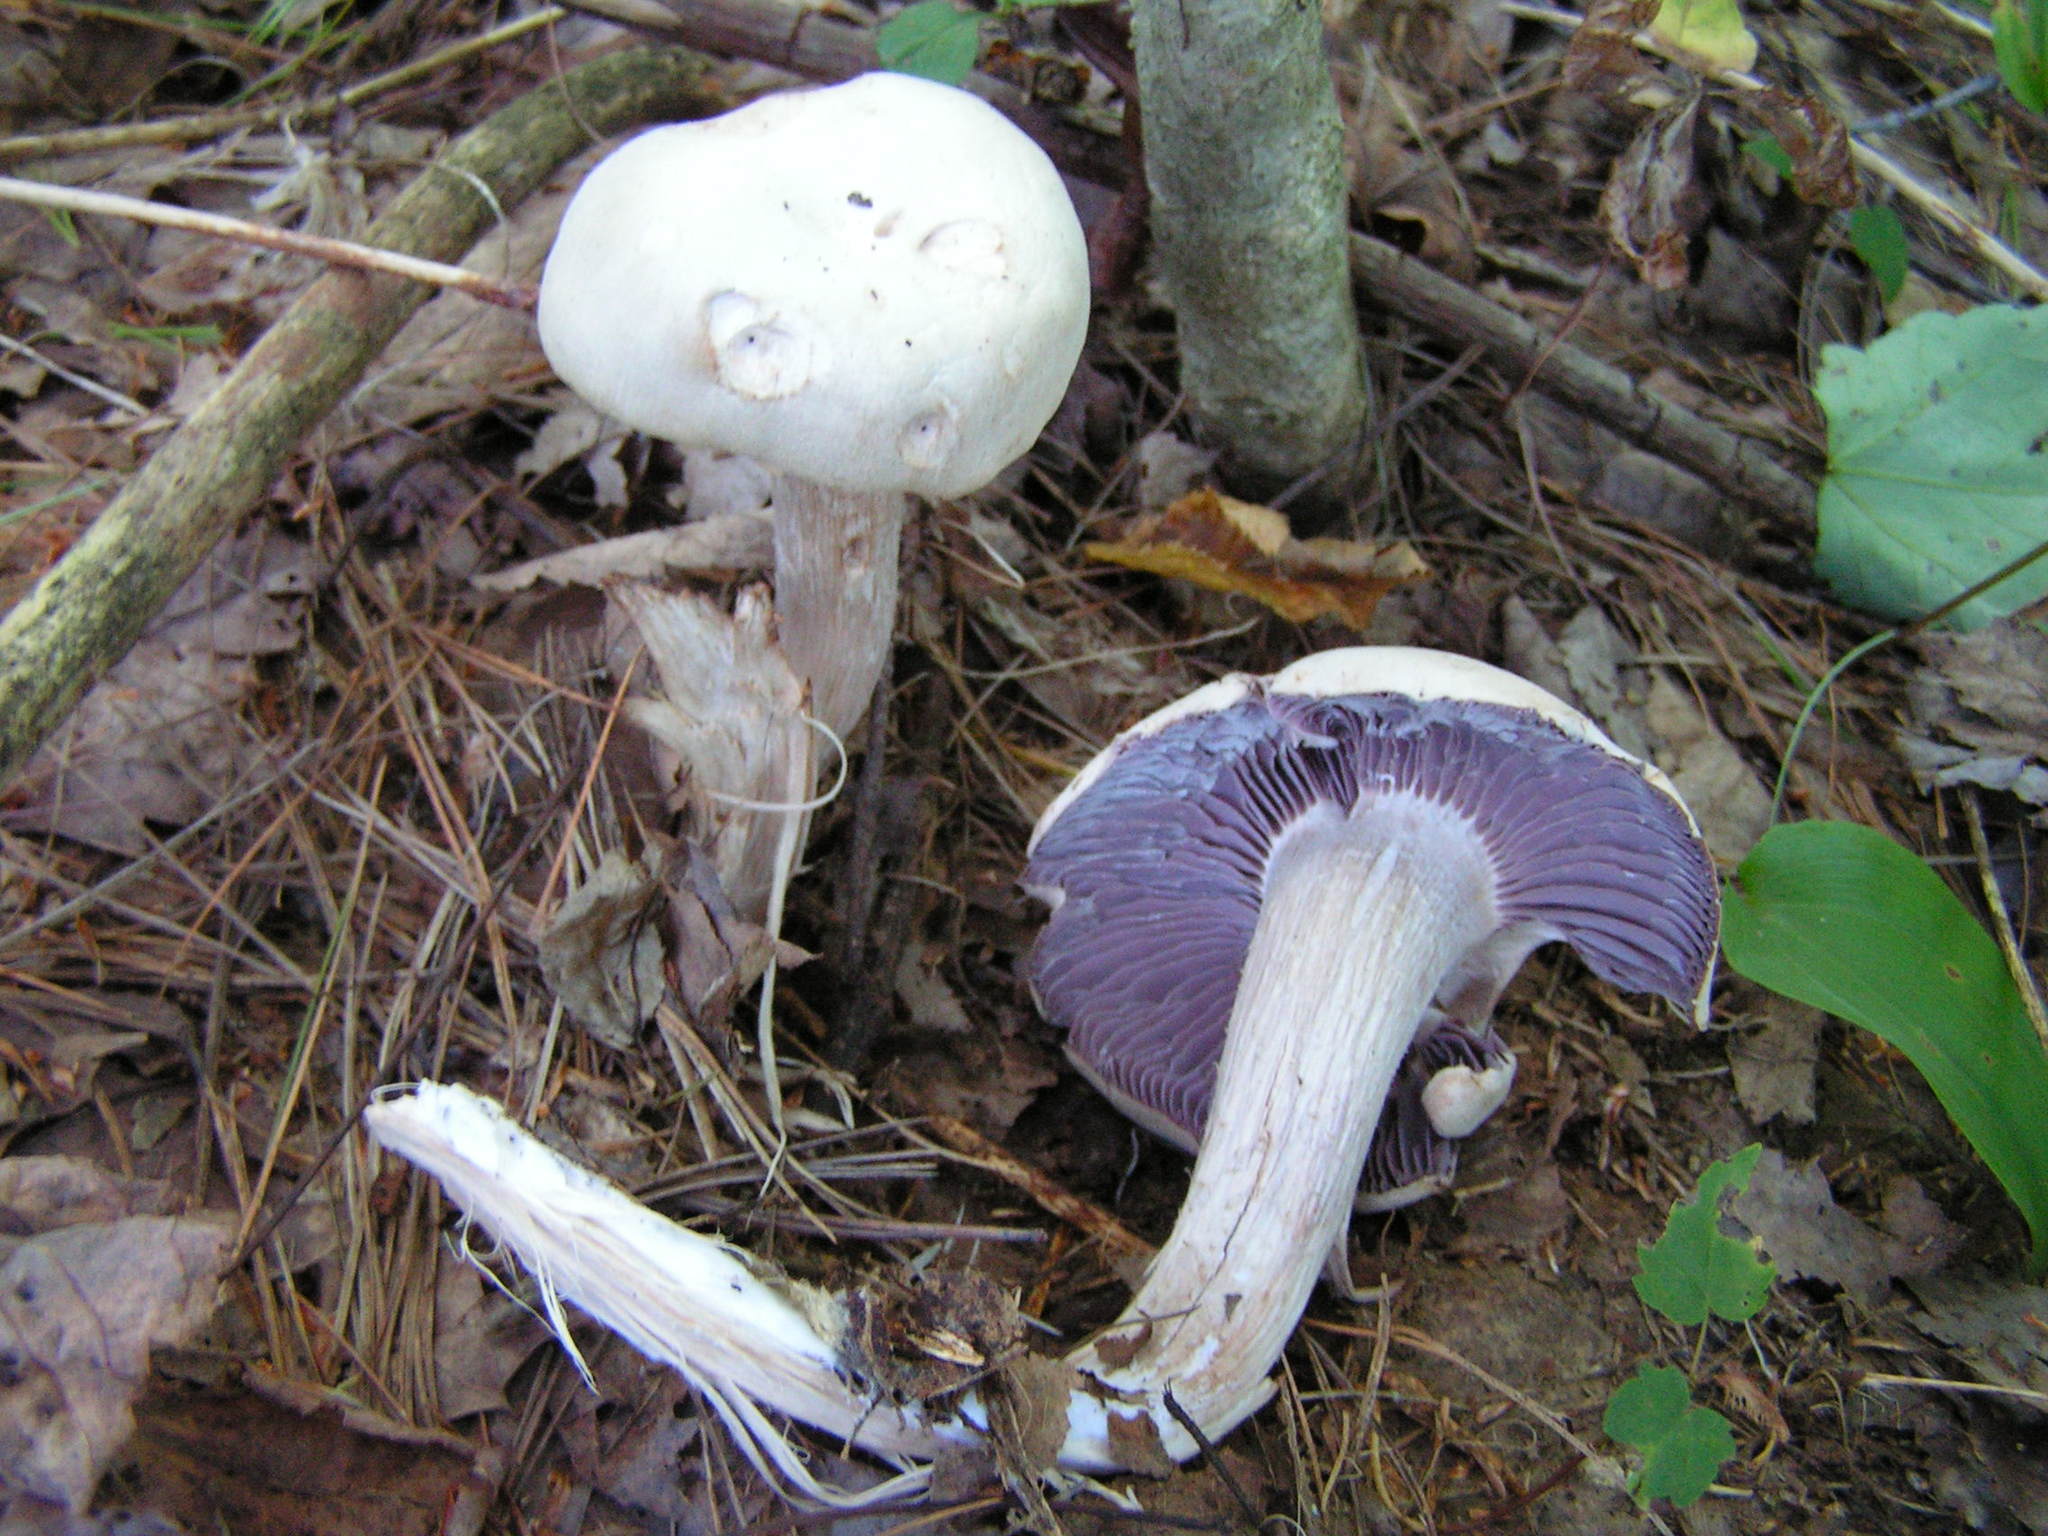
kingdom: Fungi
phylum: Basidiomycota
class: Agaricomycetes
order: Agaricales
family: Hydnangiaceae
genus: Laccaria
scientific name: Laccaria ochropurpurea
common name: Purple laccaria
